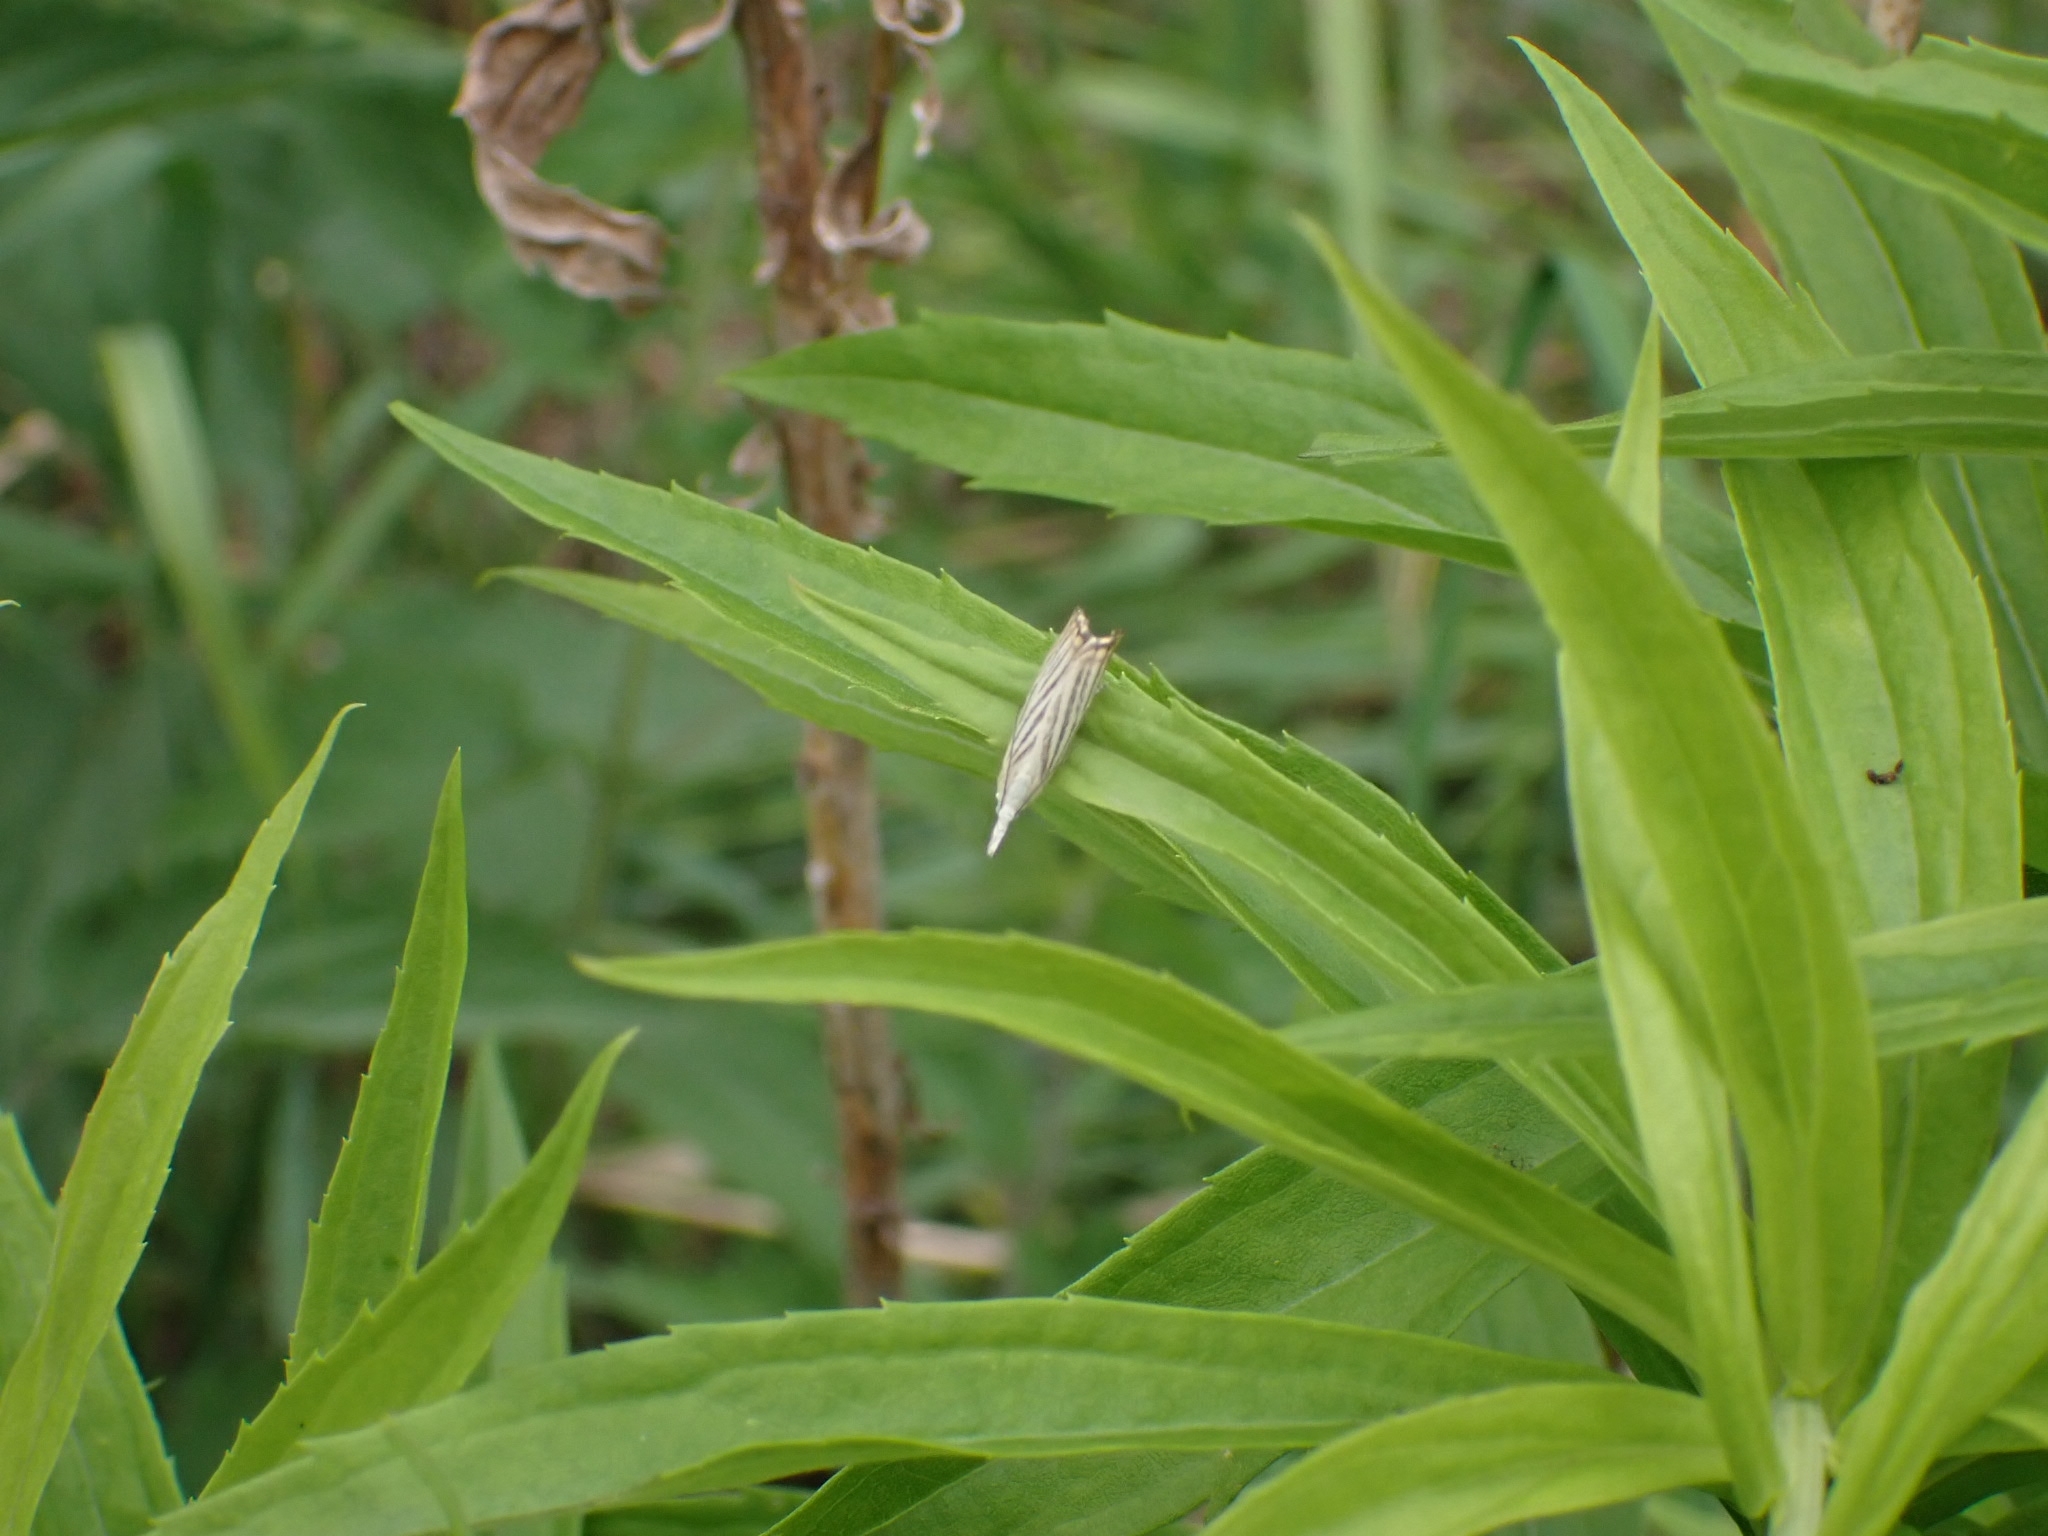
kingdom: Animalia
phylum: Arthropoda
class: Insecta
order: Lepidoptera
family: Crambidae
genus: Chrysoteuchia
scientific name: Chrysoteuchia culmella
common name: Garden grass-veneer
